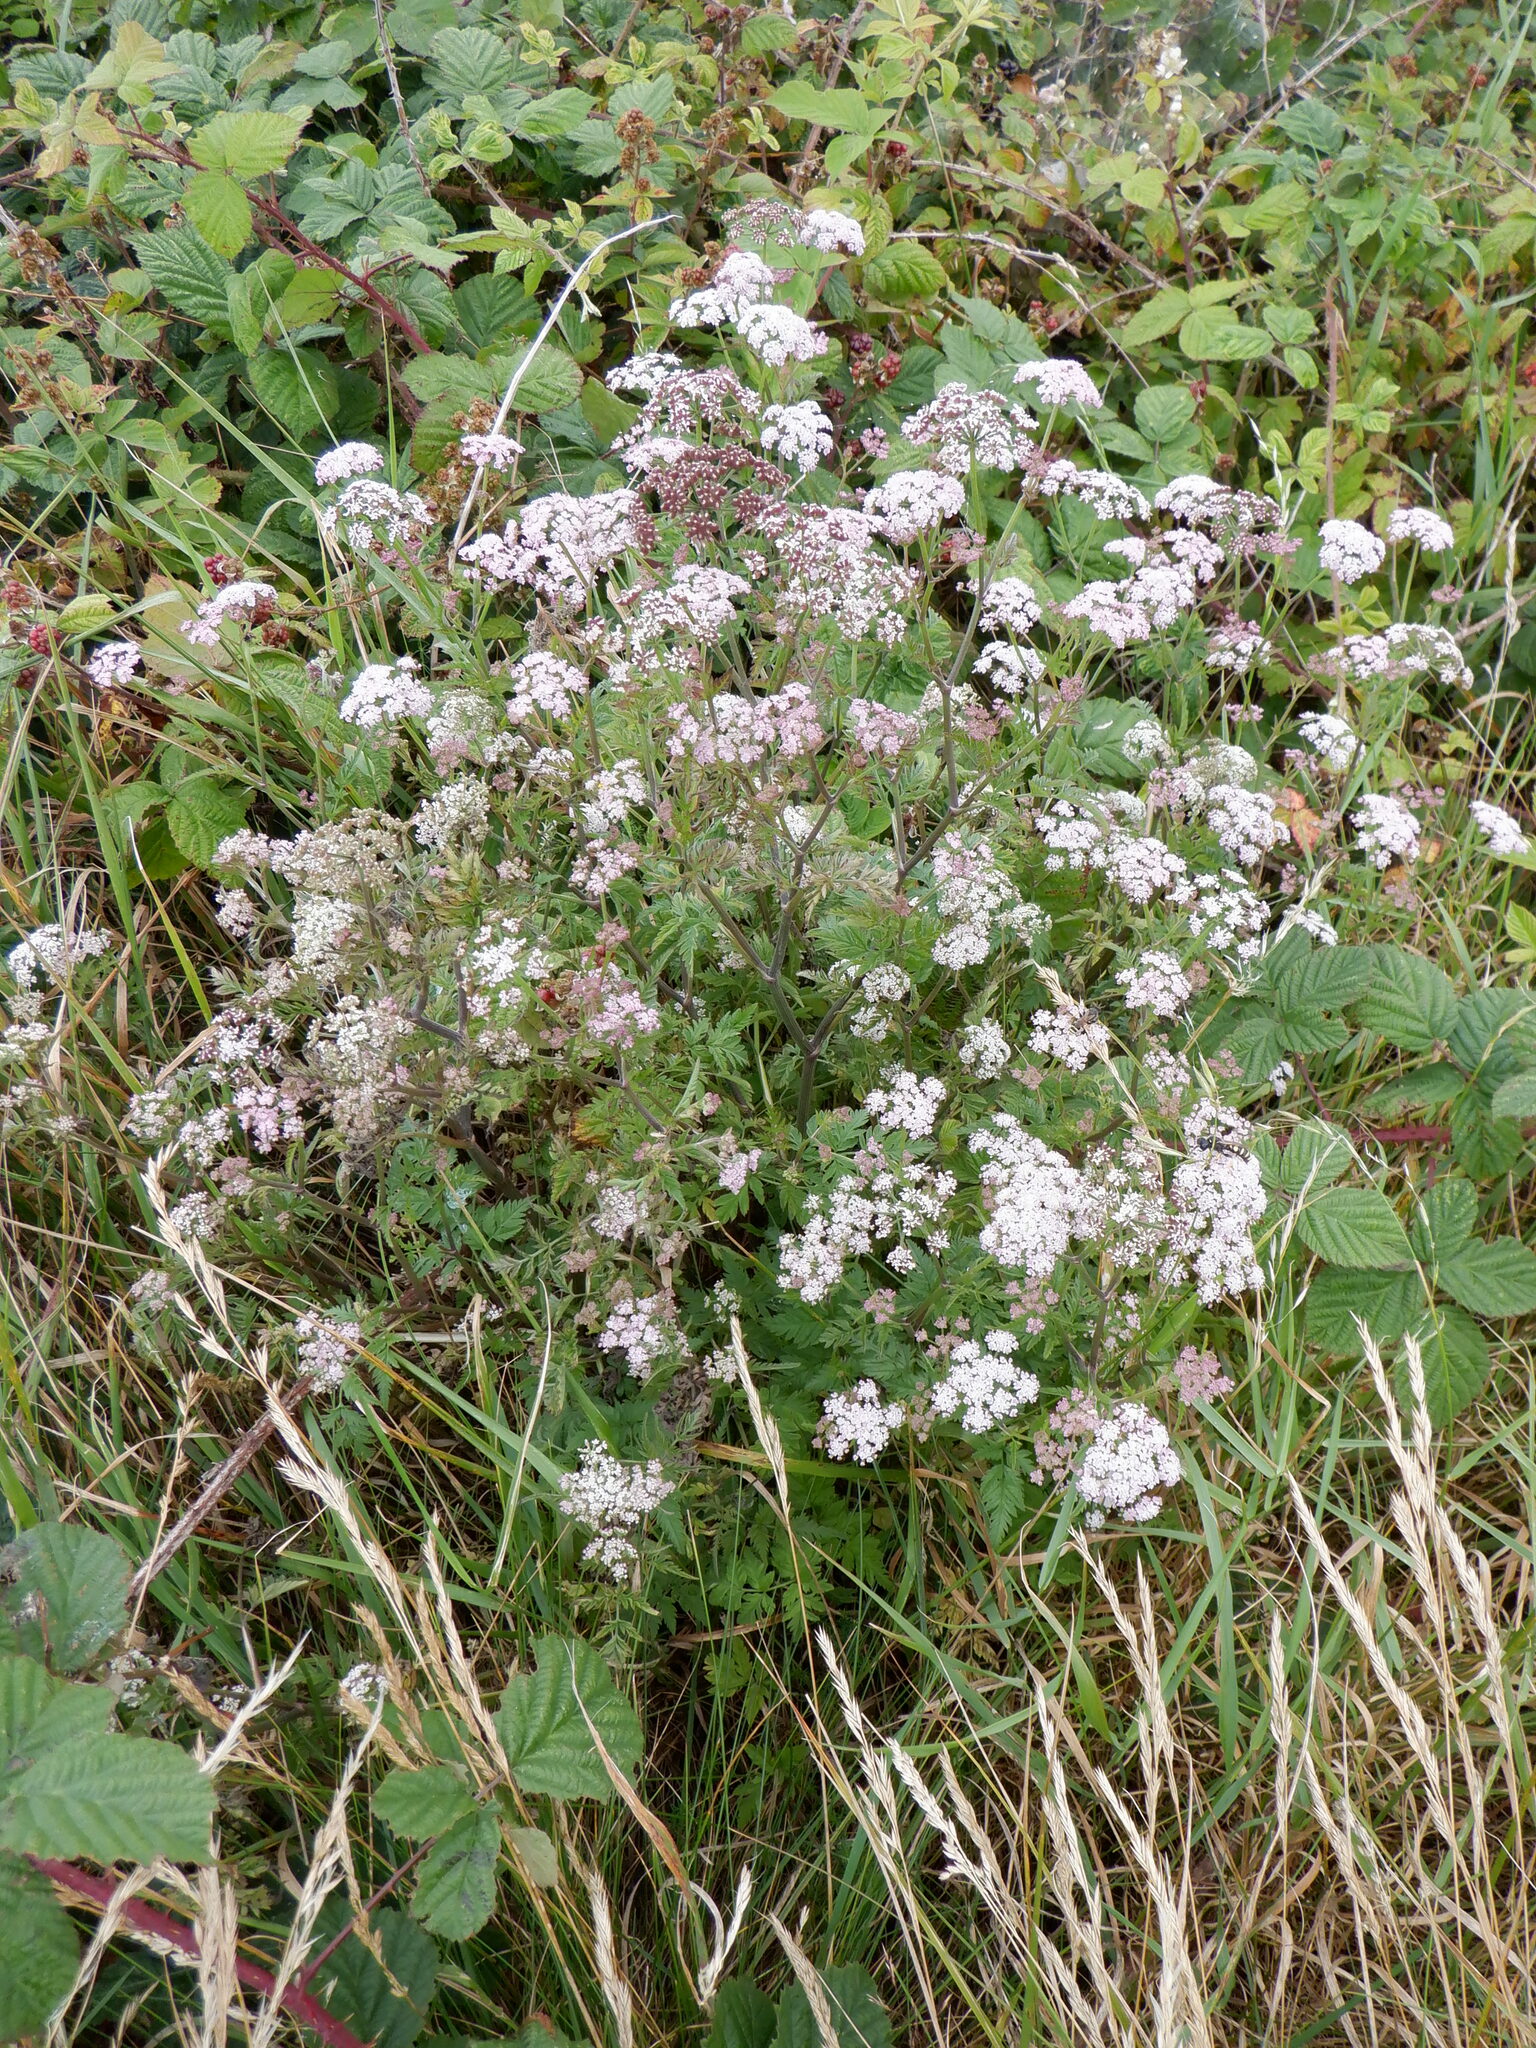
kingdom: Plantae
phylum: Tracheophyta
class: Magnoliopsida
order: Apiales
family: Apiaceae
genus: Torilis
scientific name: Torilis japonica
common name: Upright hedge-parsley
